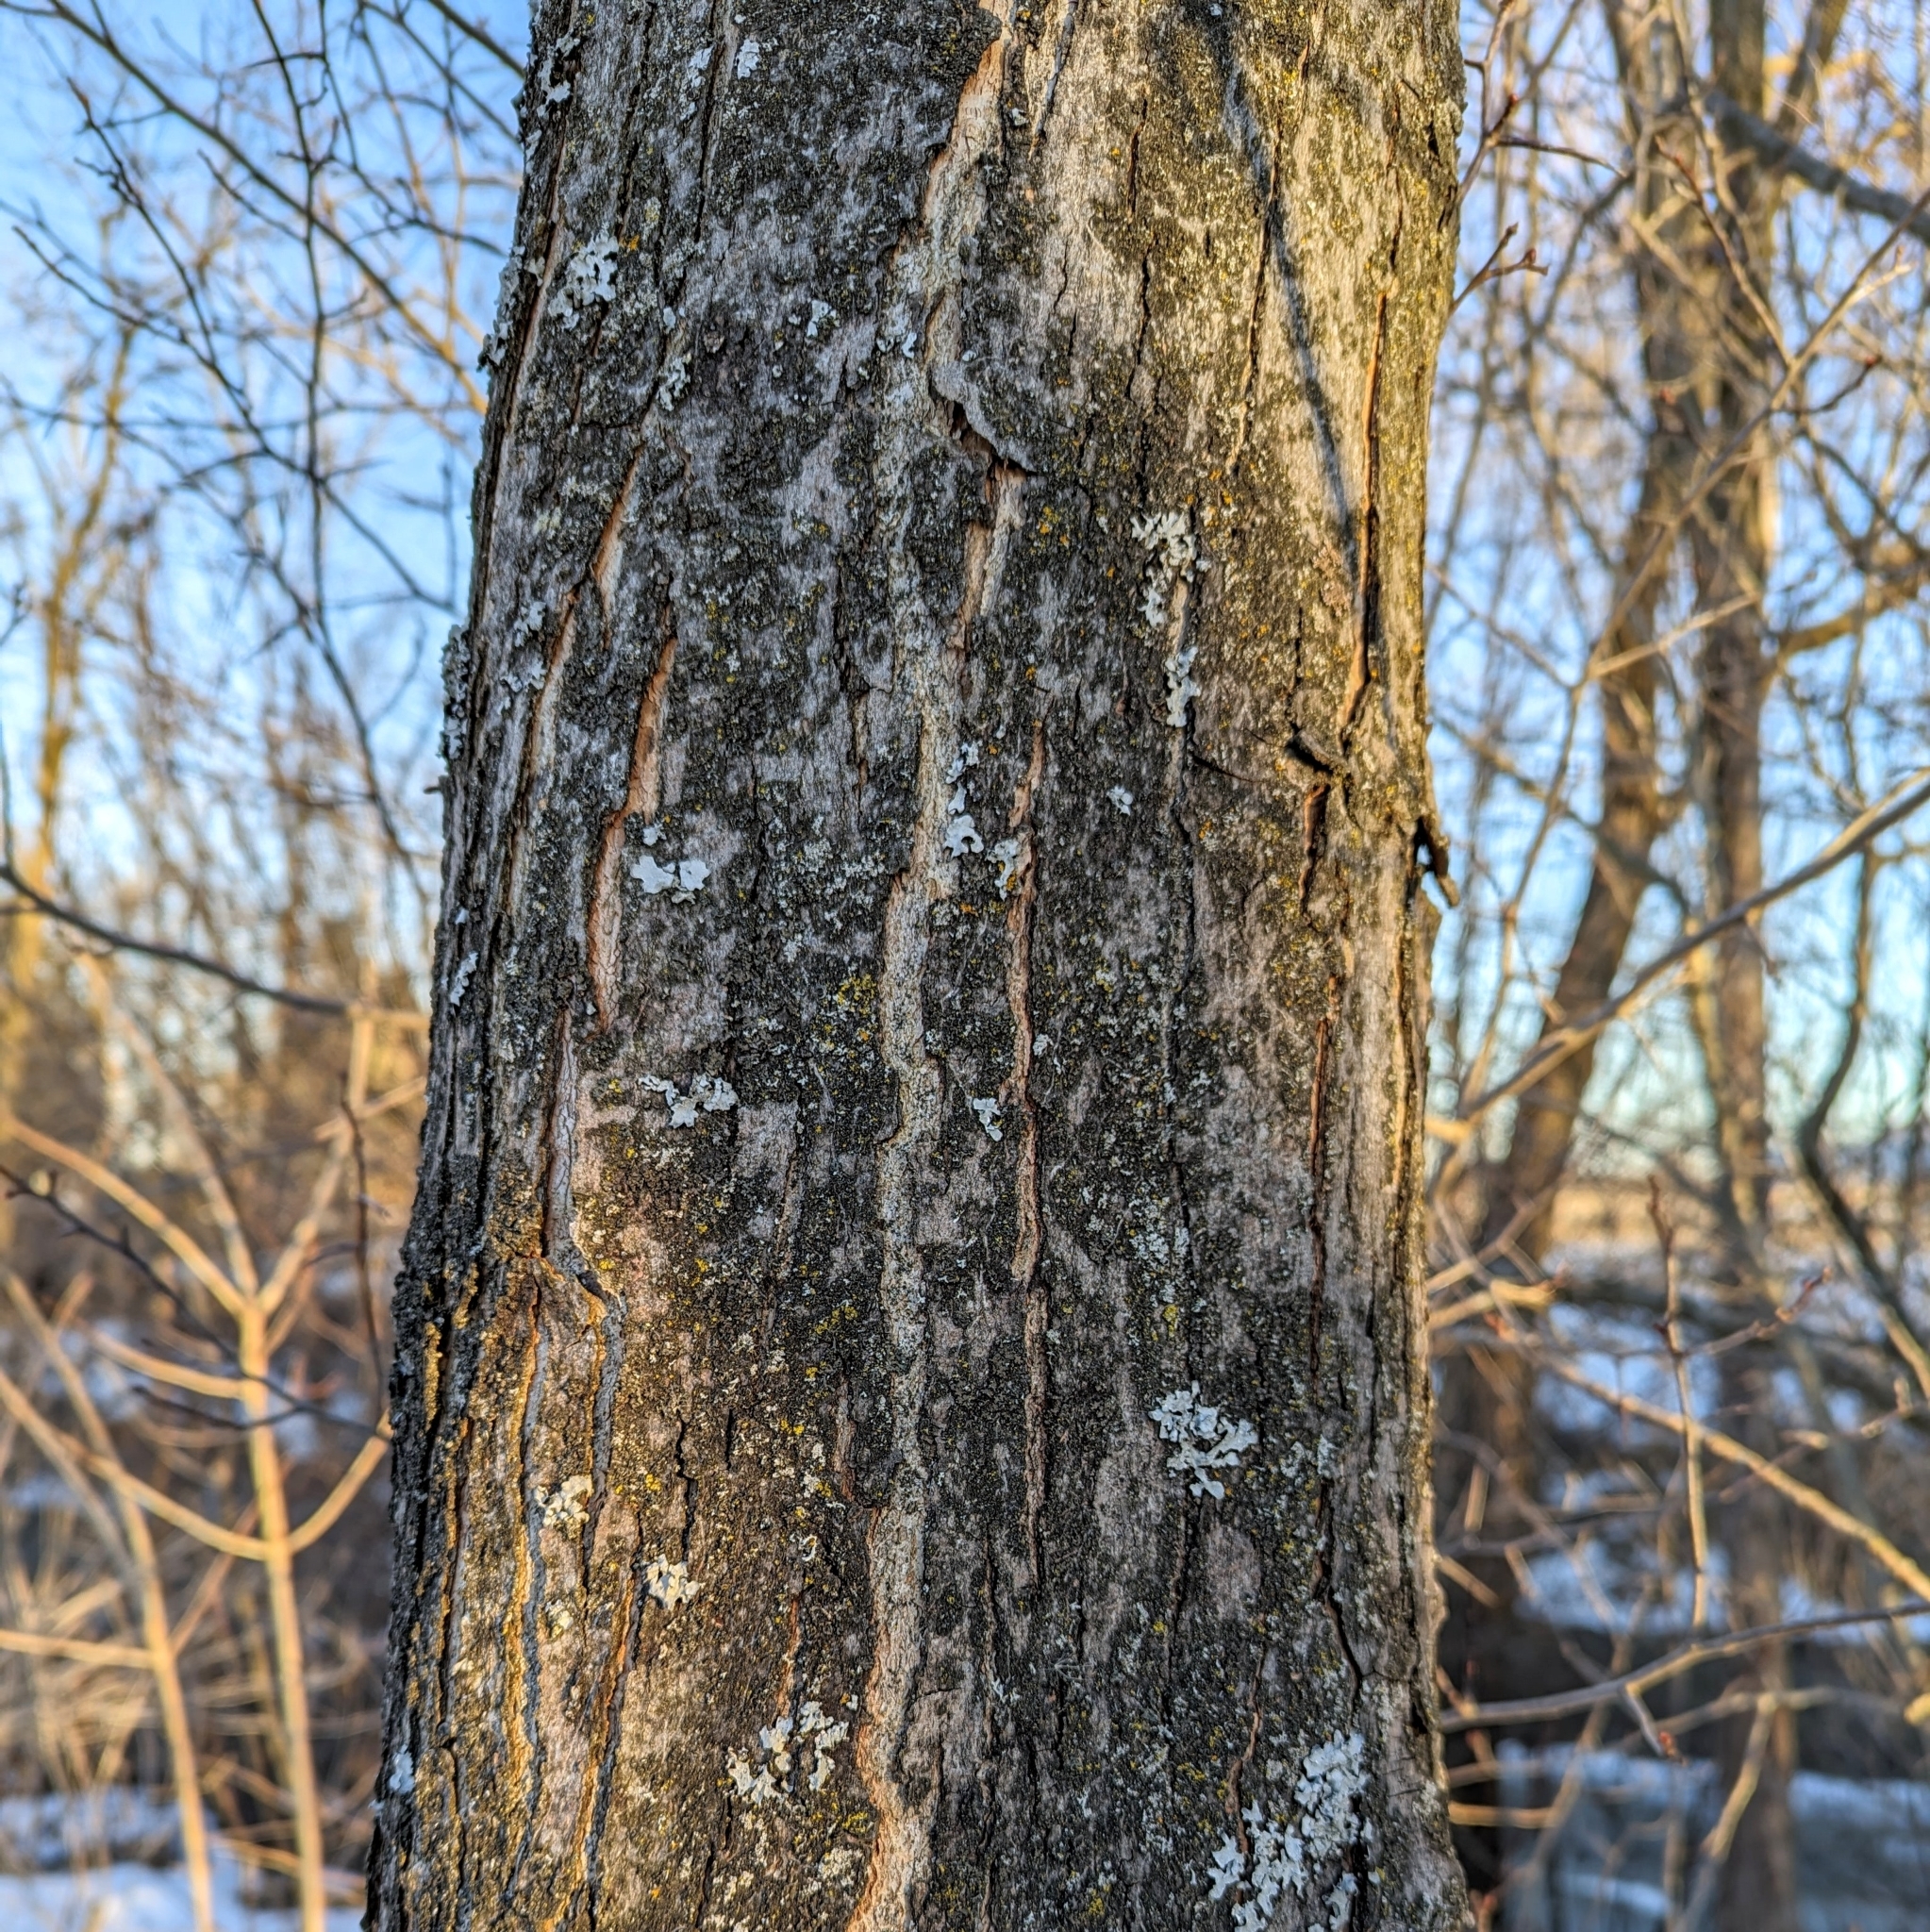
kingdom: Plantae
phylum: Tracheophyta
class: Magnoliopsida
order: Sapindales
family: Sapindaceae
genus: Acer
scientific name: Acer saccharinum
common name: Silver maple
